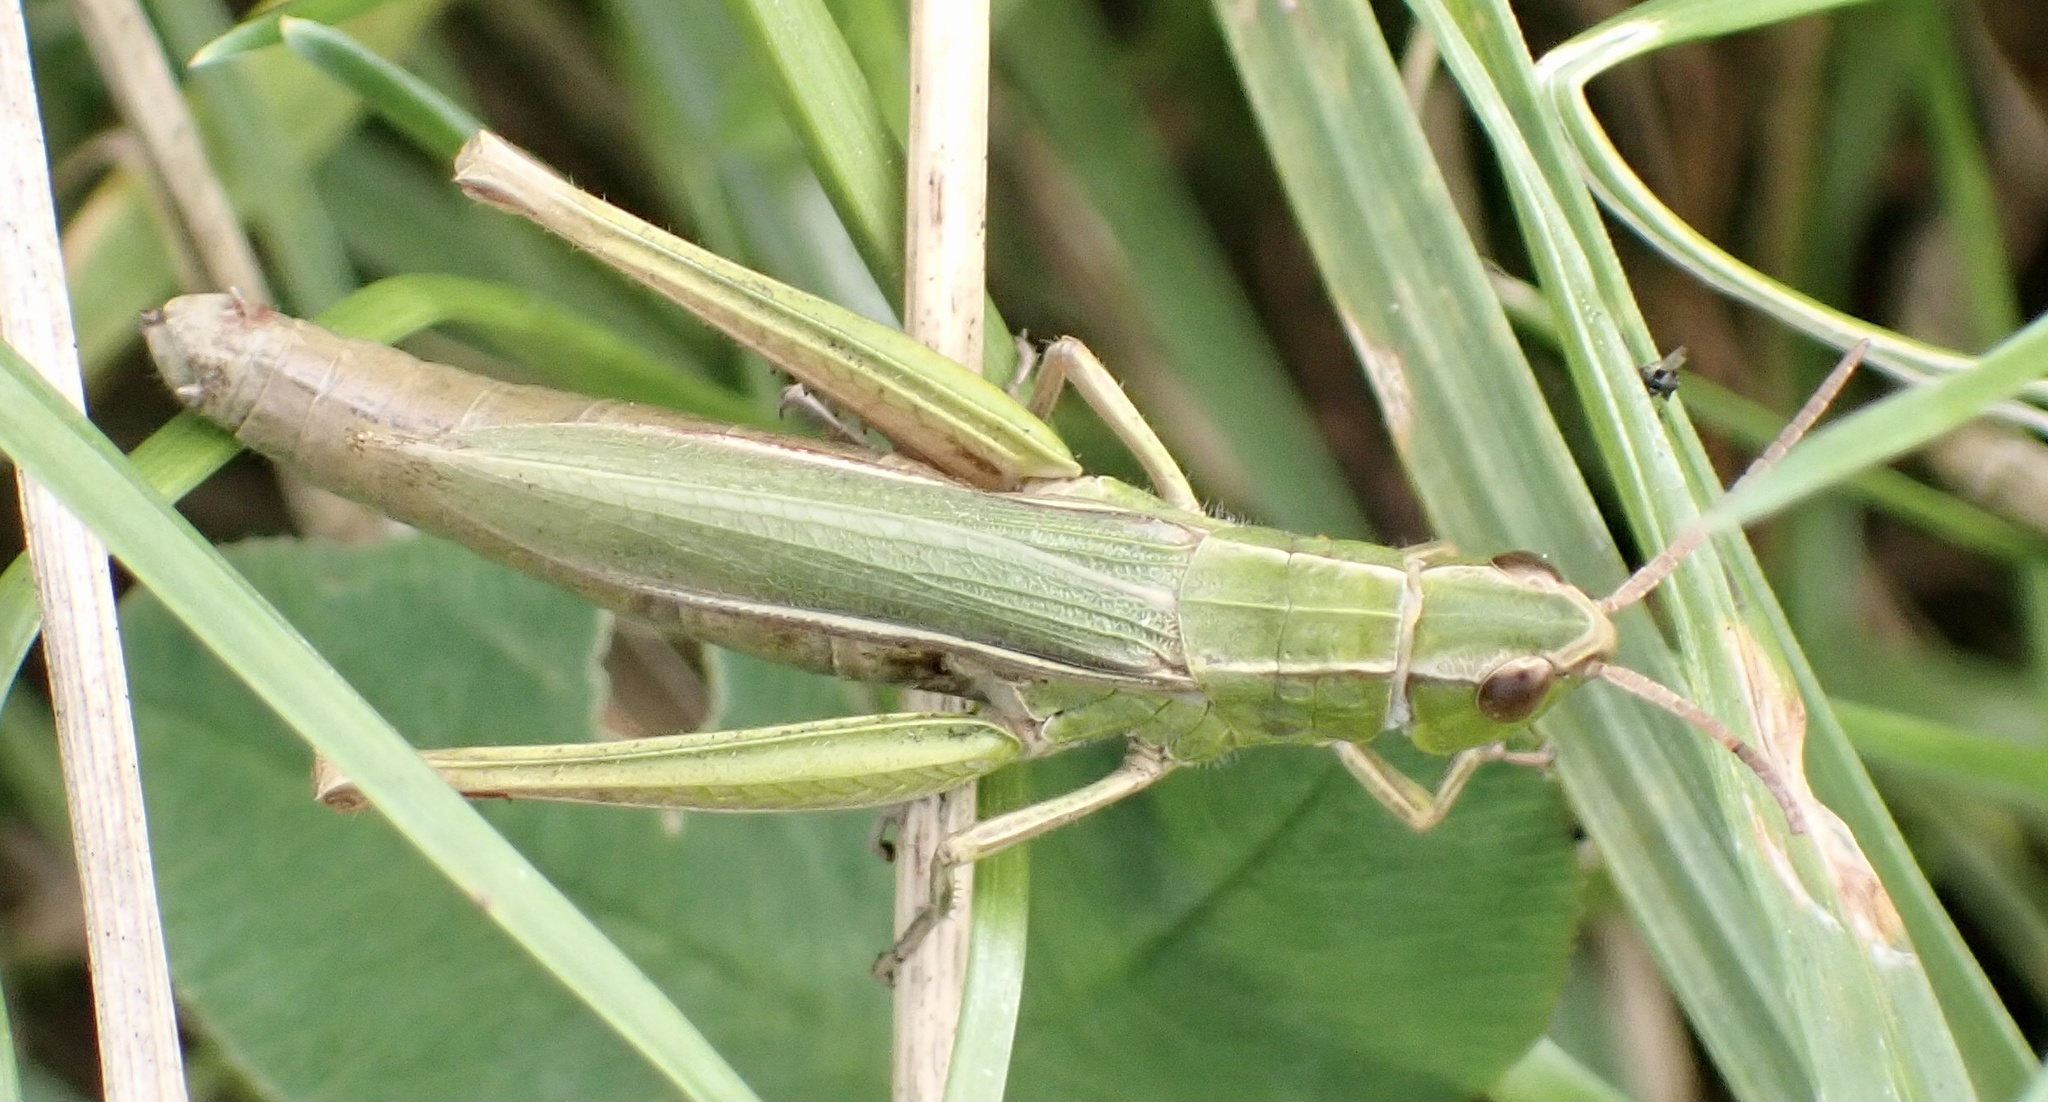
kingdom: Animalia
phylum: Arthropoda
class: Insecta
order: Orthoptera
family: Acrididae
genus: Chorthippus
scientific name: Chorthippus albomarginatus
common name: Lesser marsh grasshopper
